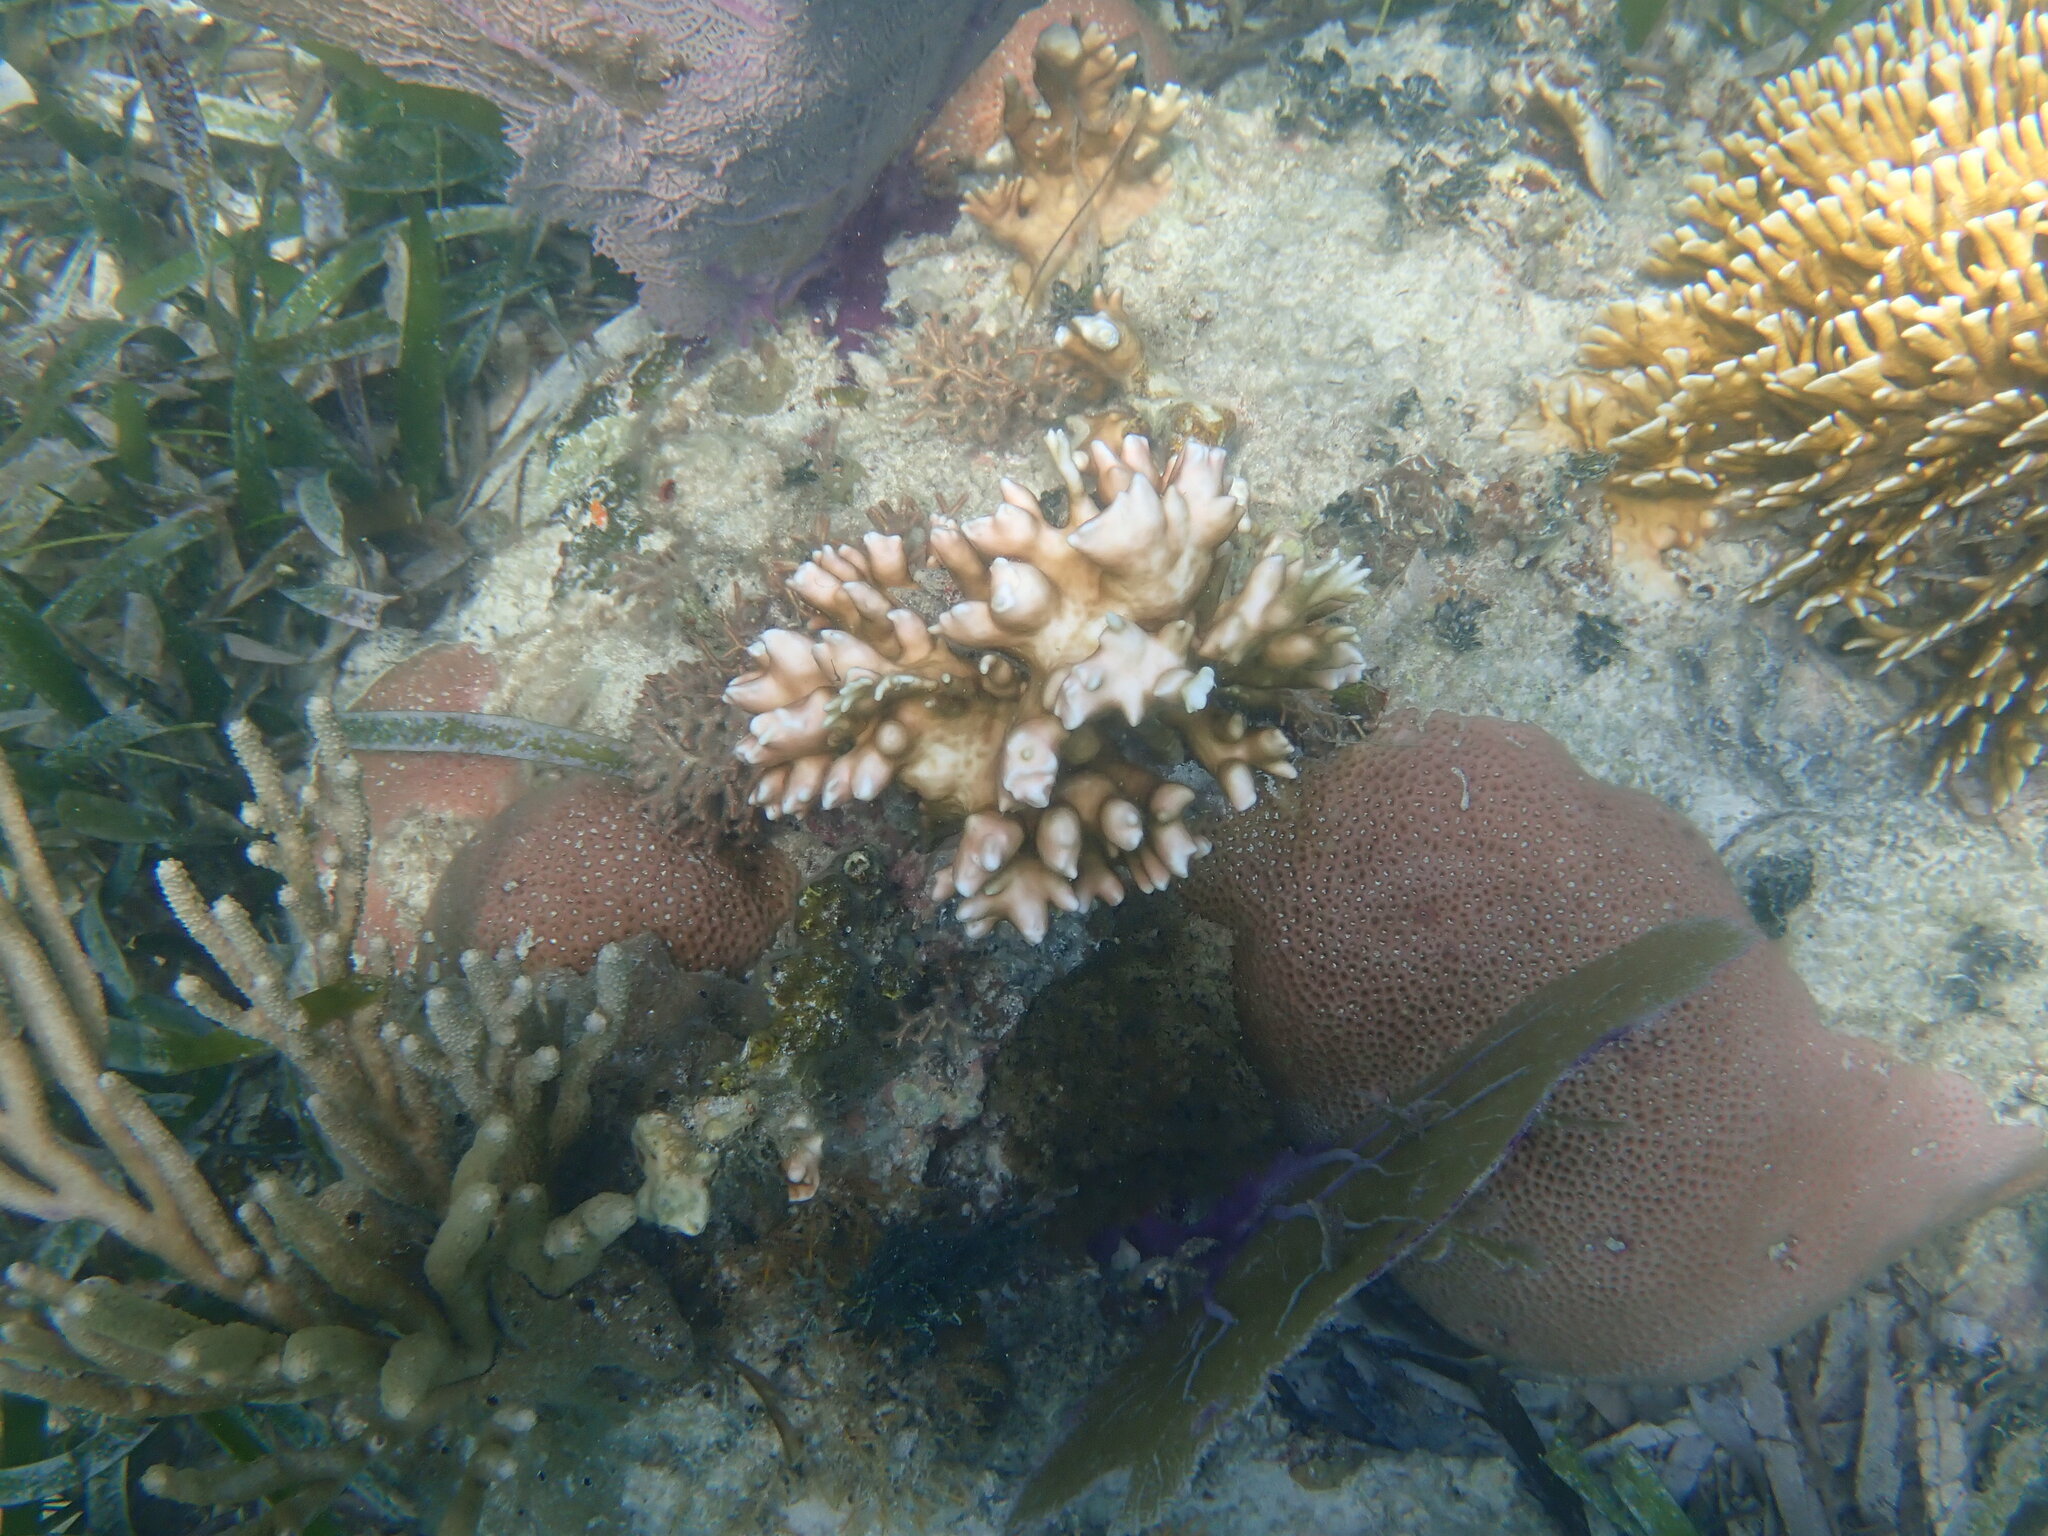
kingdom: Animalia
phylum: Cnidaria
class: Hydrozoa
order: Anthoathecata
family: Milleporidae
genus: Millepora
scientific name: Millepora alcicornis
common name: Branching fire coral
